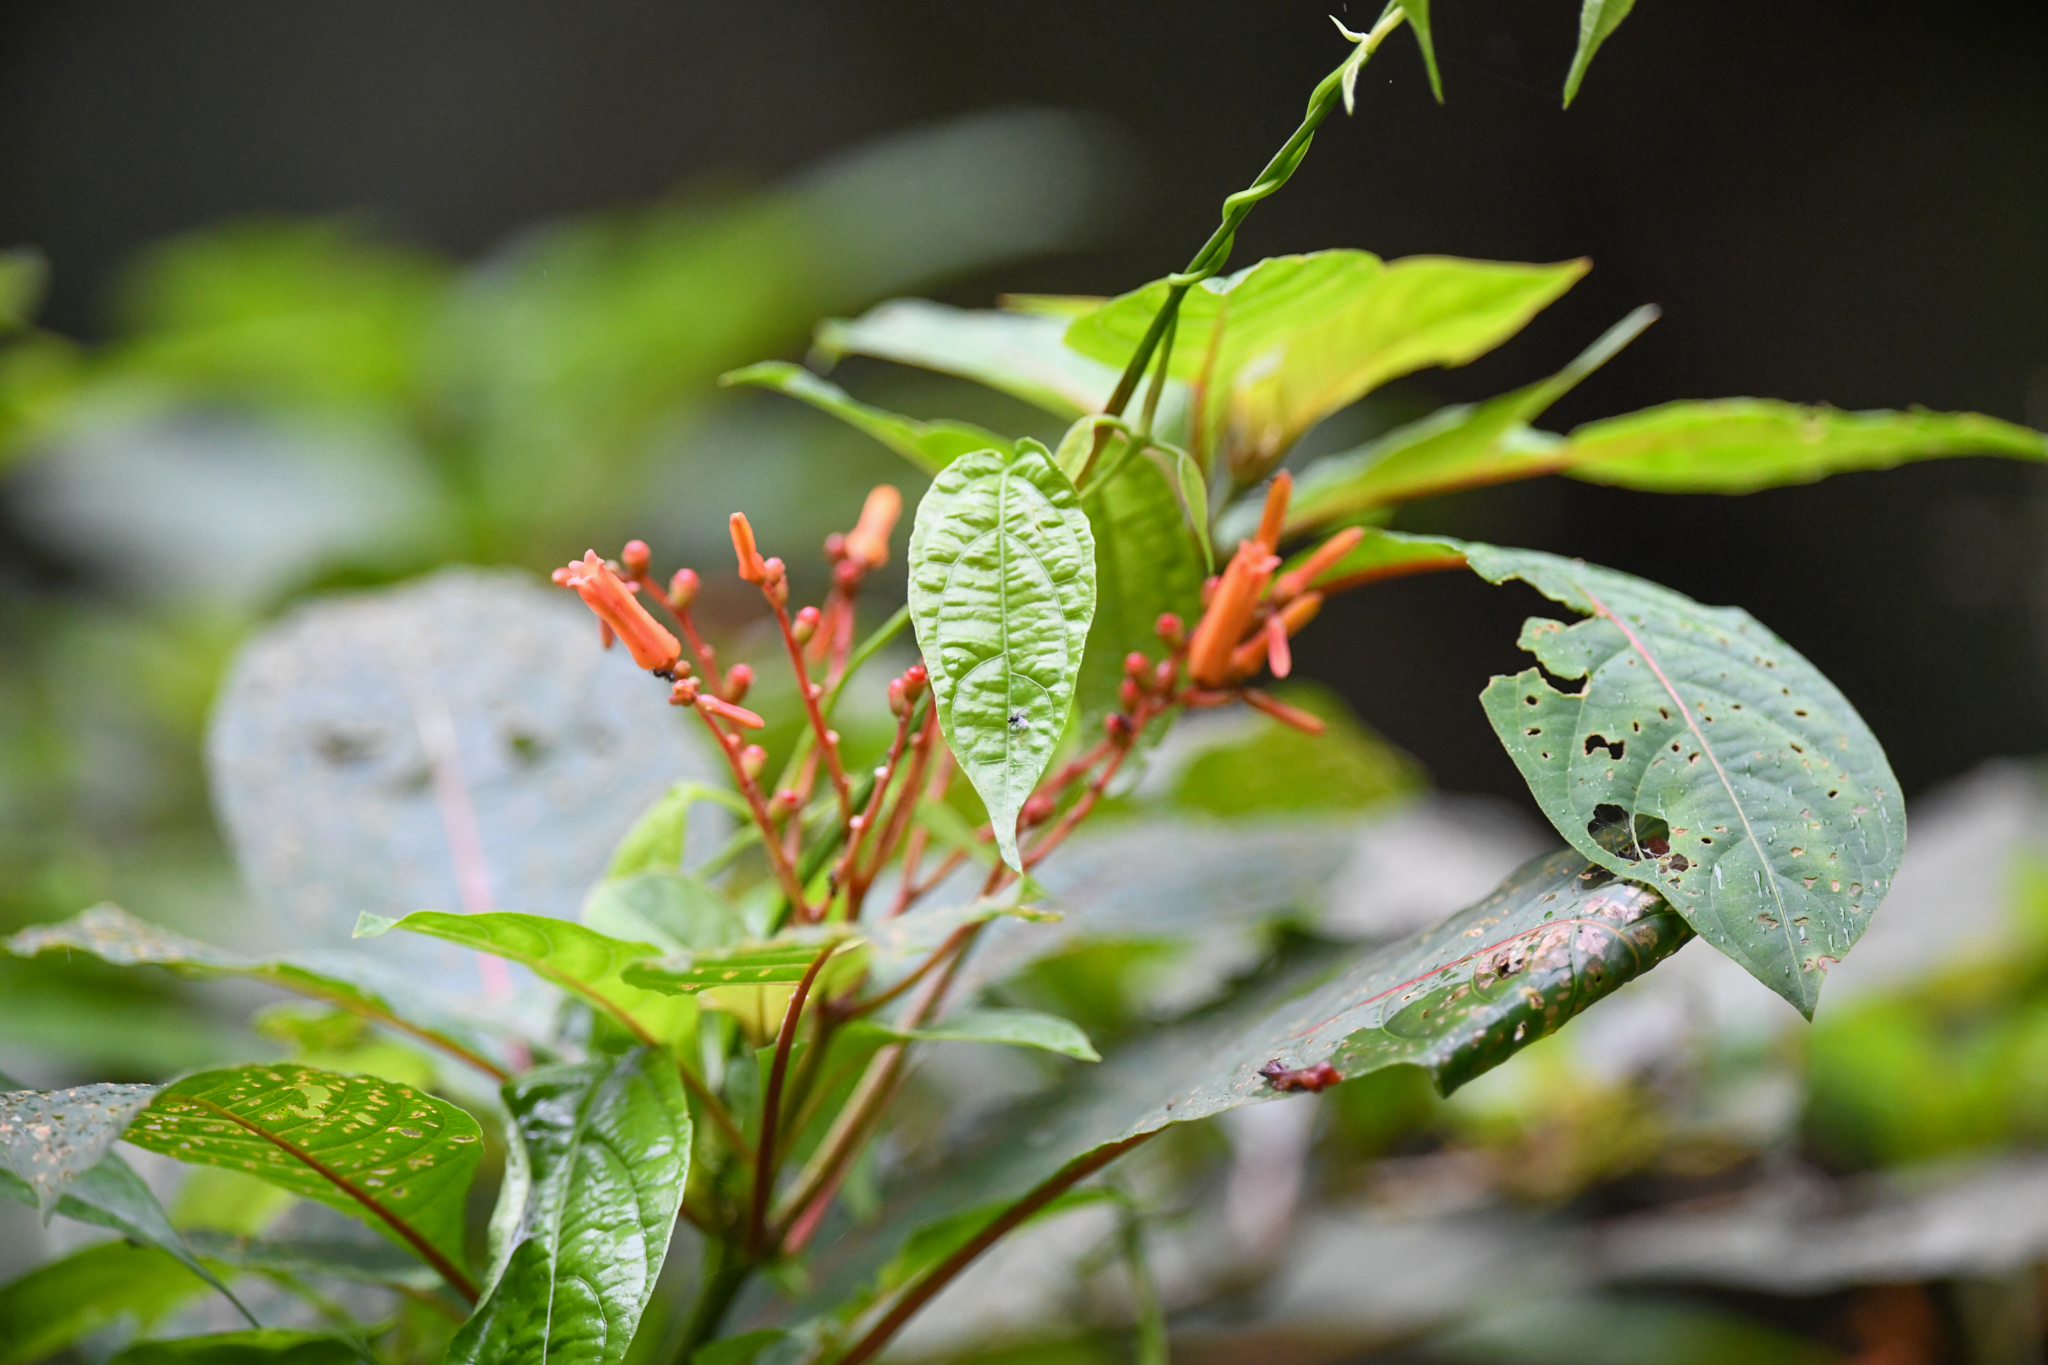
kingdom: Plantae
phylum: Tracheophyta
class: Magnoliopsida
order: Gentianales
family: Rubiaceae
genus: Hamelia
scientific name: Hamelia patens
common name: Redhead
